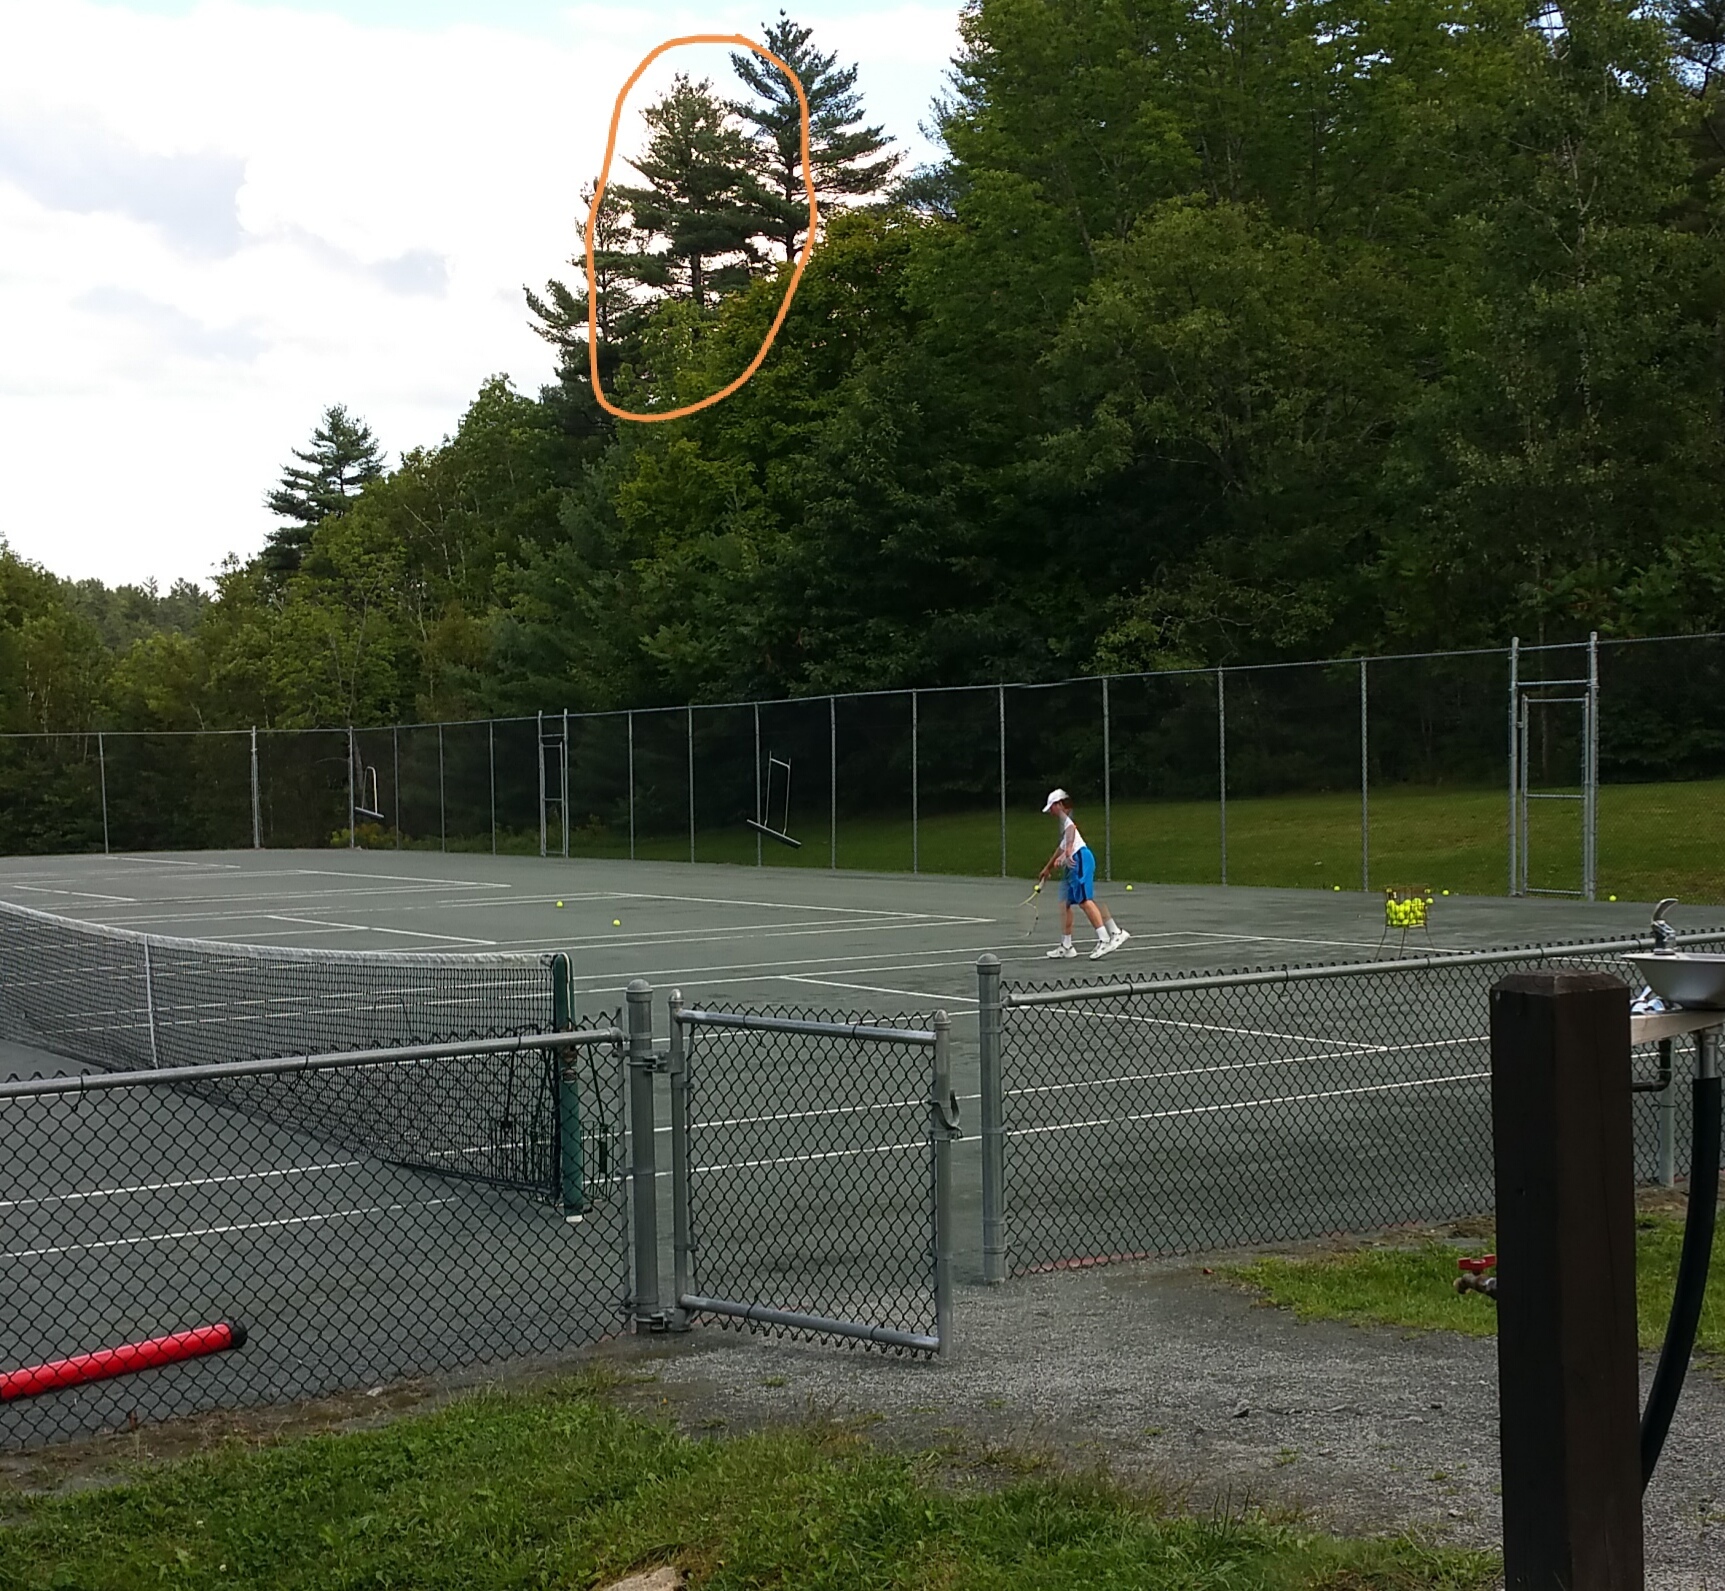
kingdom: Plantae
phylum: Tracheophyta
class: Pinopsida
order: Pinales
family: Pinaceae
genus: Pinus
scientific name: Pinus strobus
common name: Weymouth pine
